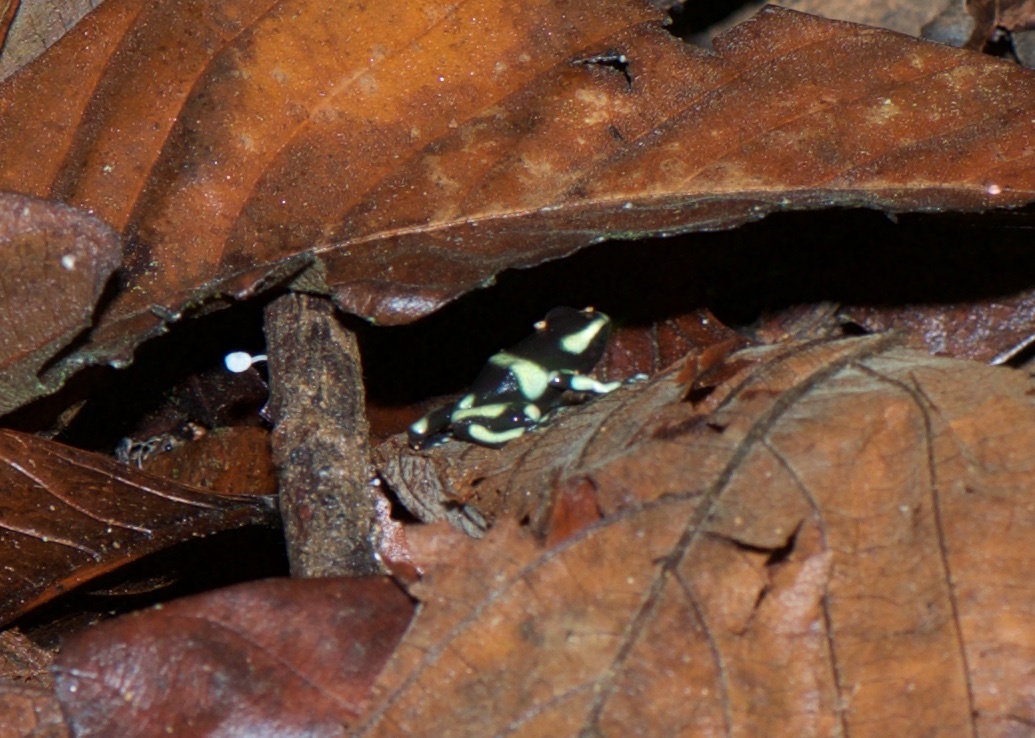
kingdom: Animalia
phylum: Chordata
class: Amphibia
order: Anura
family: Dendrobatidae
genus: Dendrobates
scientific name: Dendrobates auratus
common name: Green and black poison dart frog
